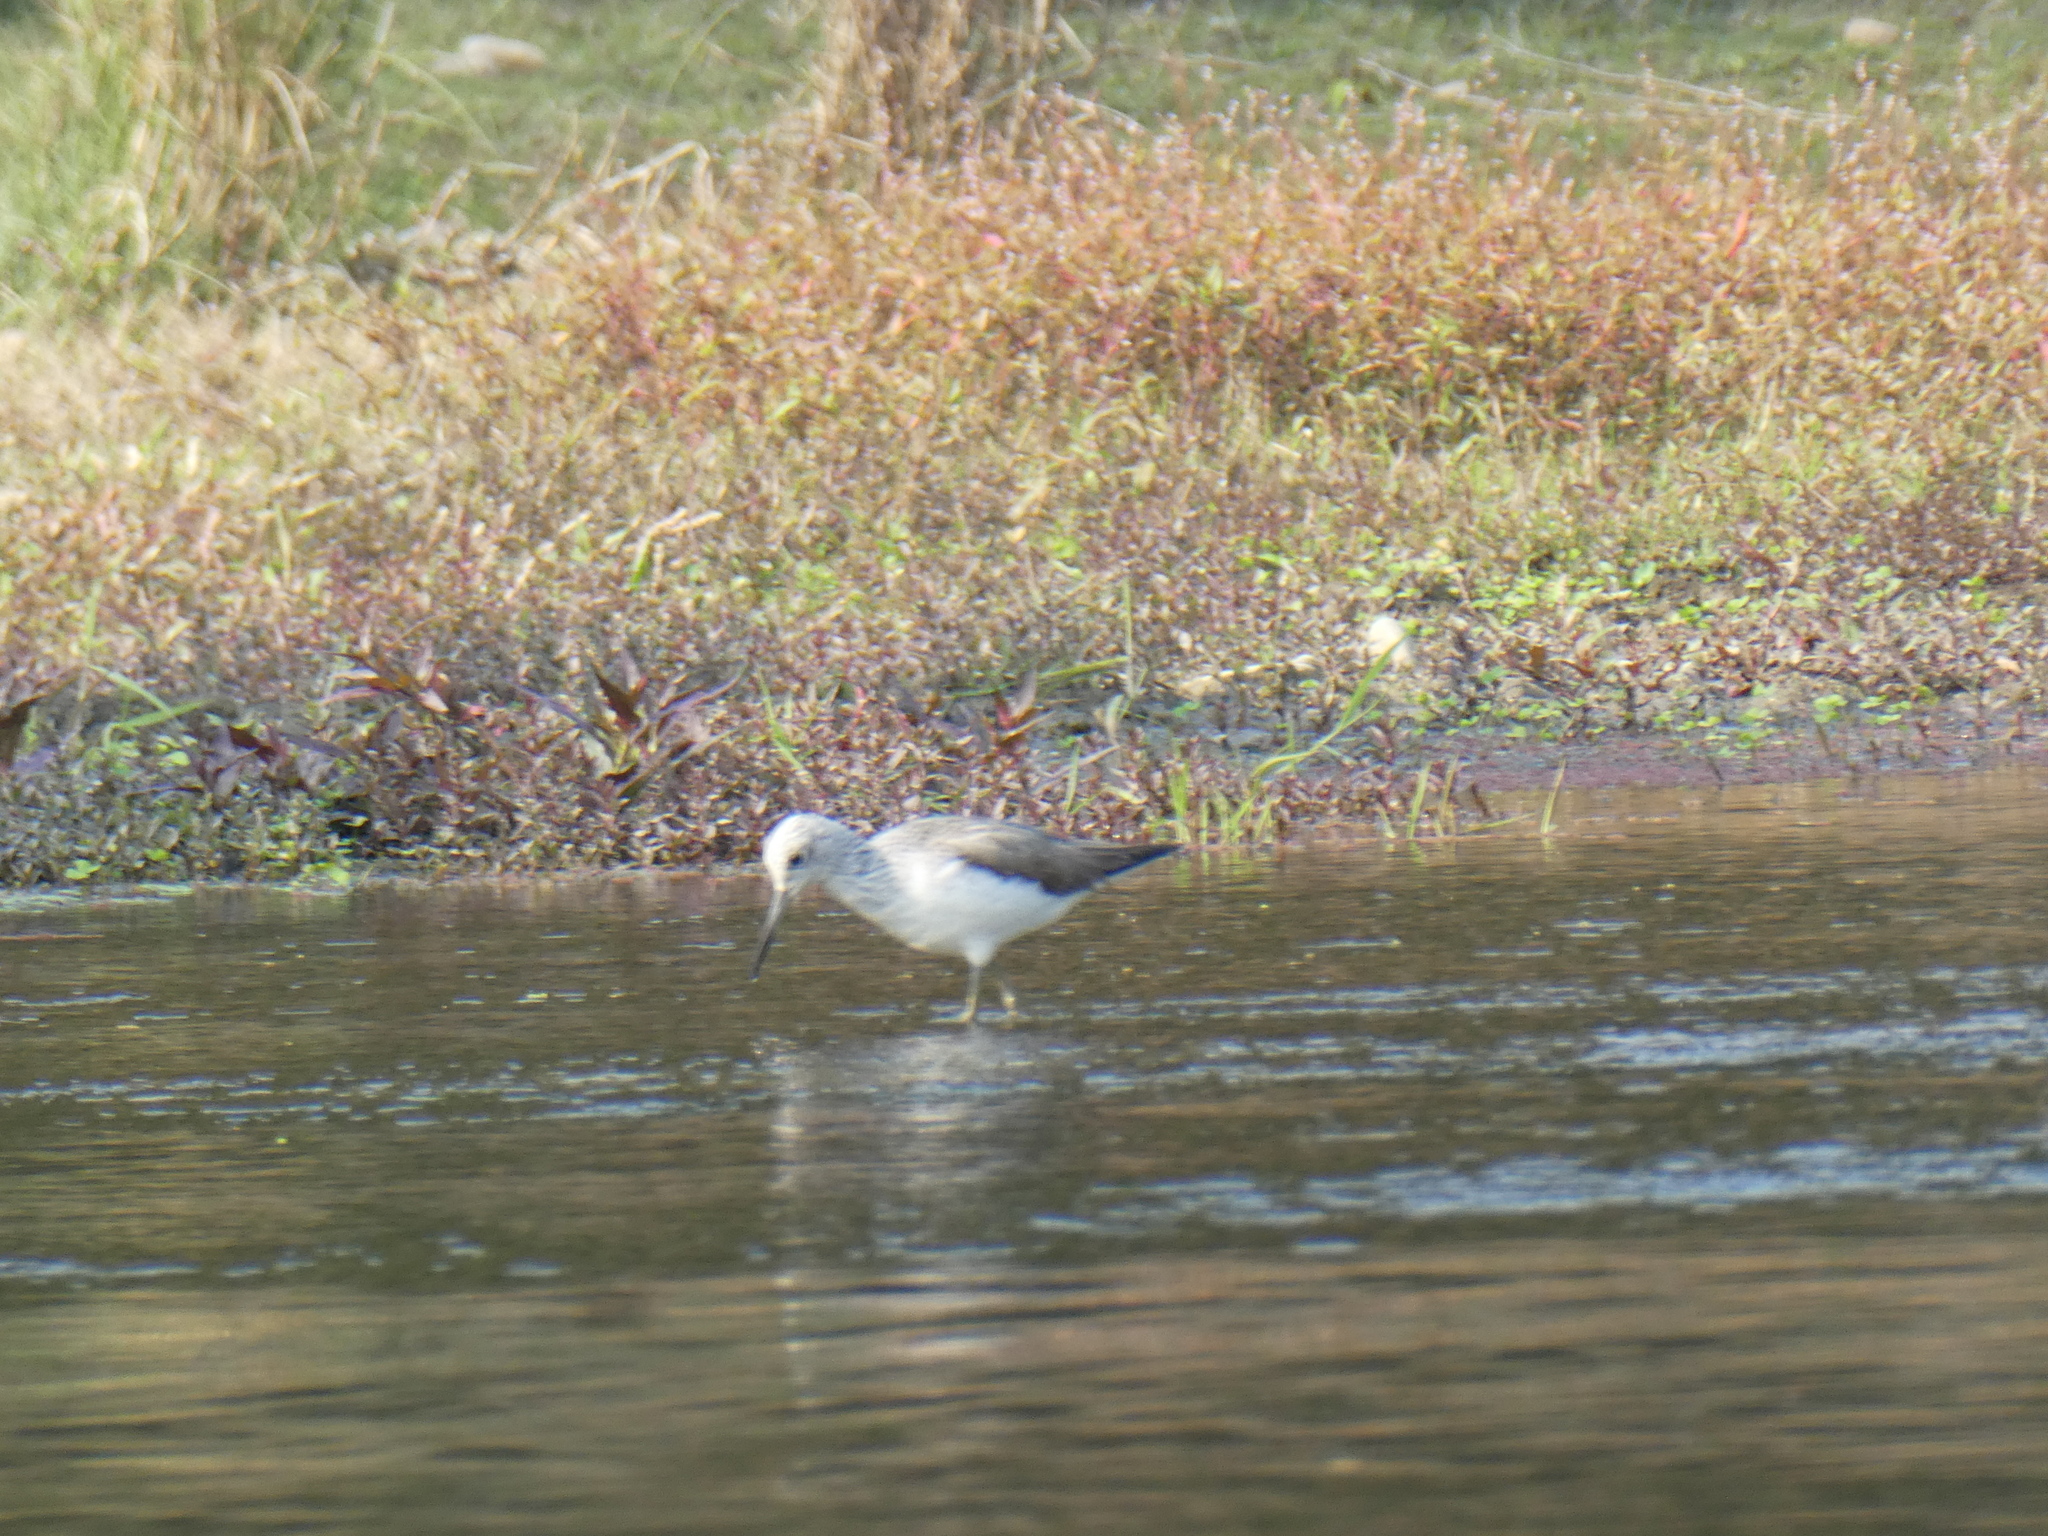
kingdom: Animalia
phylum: Chordata
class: Aves
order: Charadriiformes
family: Scolopacidae
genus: Tringa
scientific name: Tringa nebularia
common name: Common greenshank
